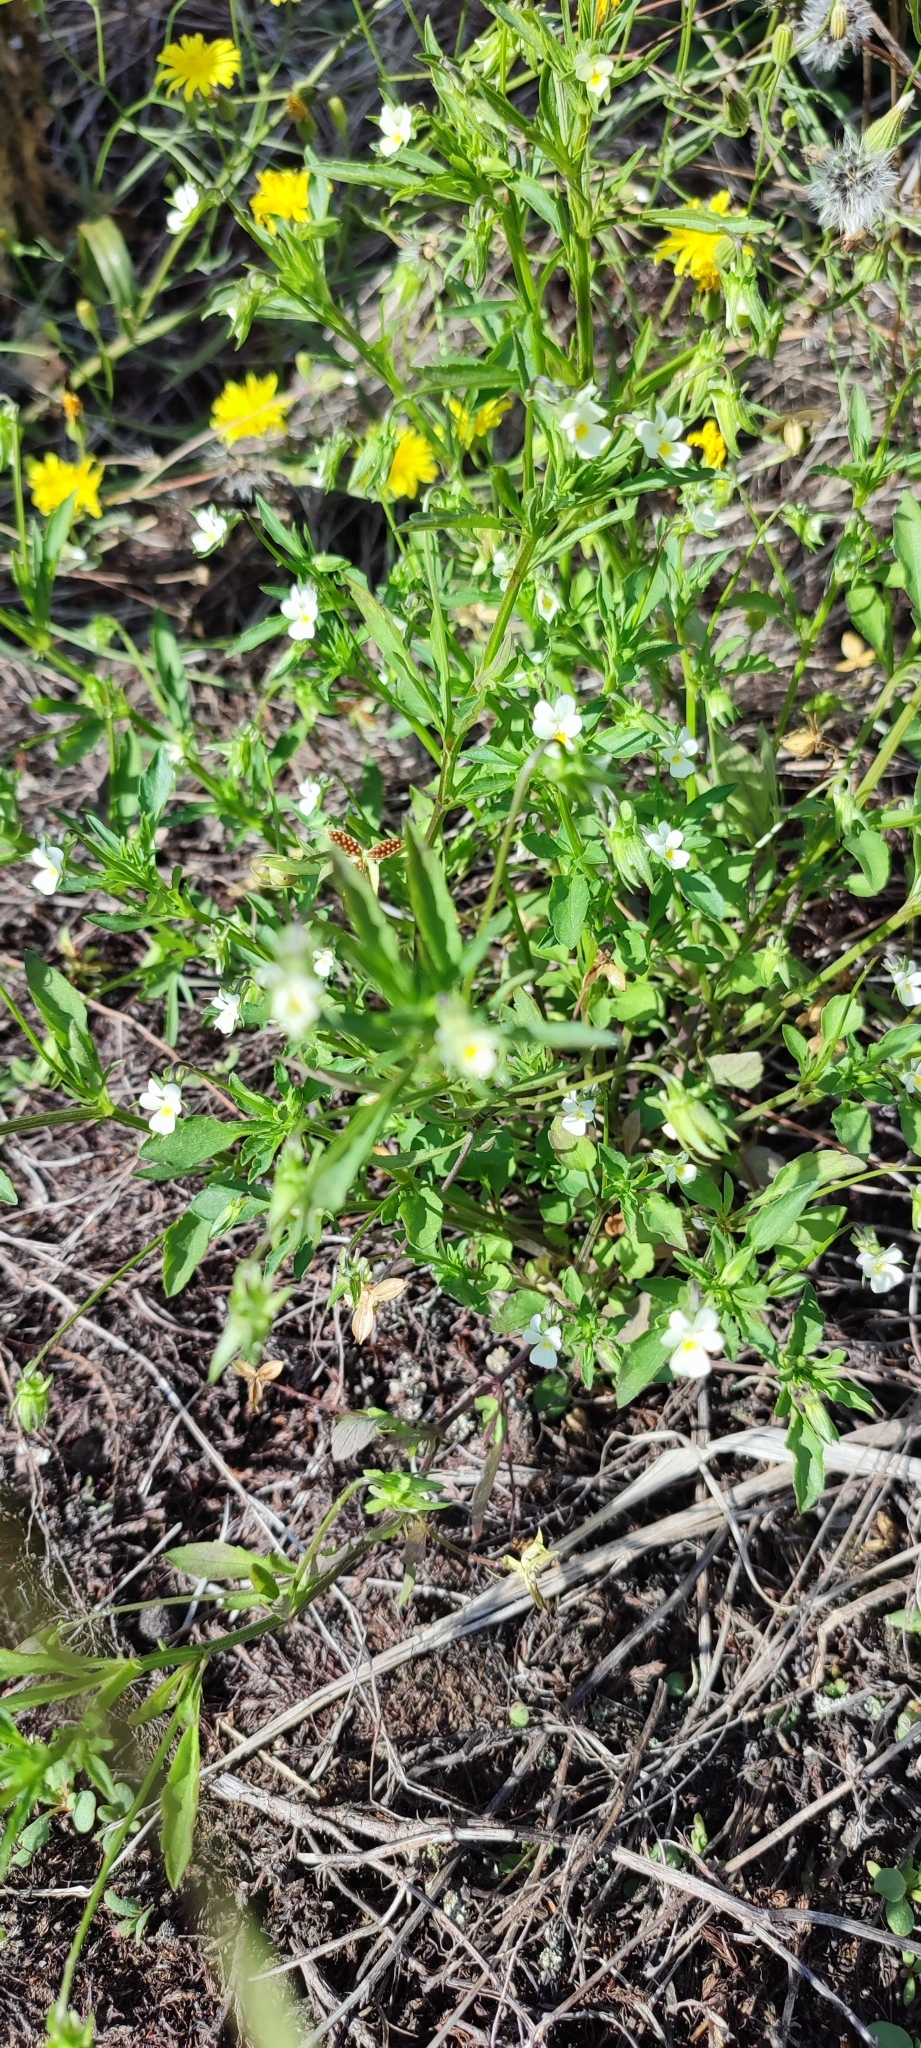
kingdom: Plantae
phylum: Tracheophyta
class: Magnoliopsida
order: Malpighiales
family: Violaceae
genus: Viola
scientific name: Viola arvensis
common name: Field pansy
